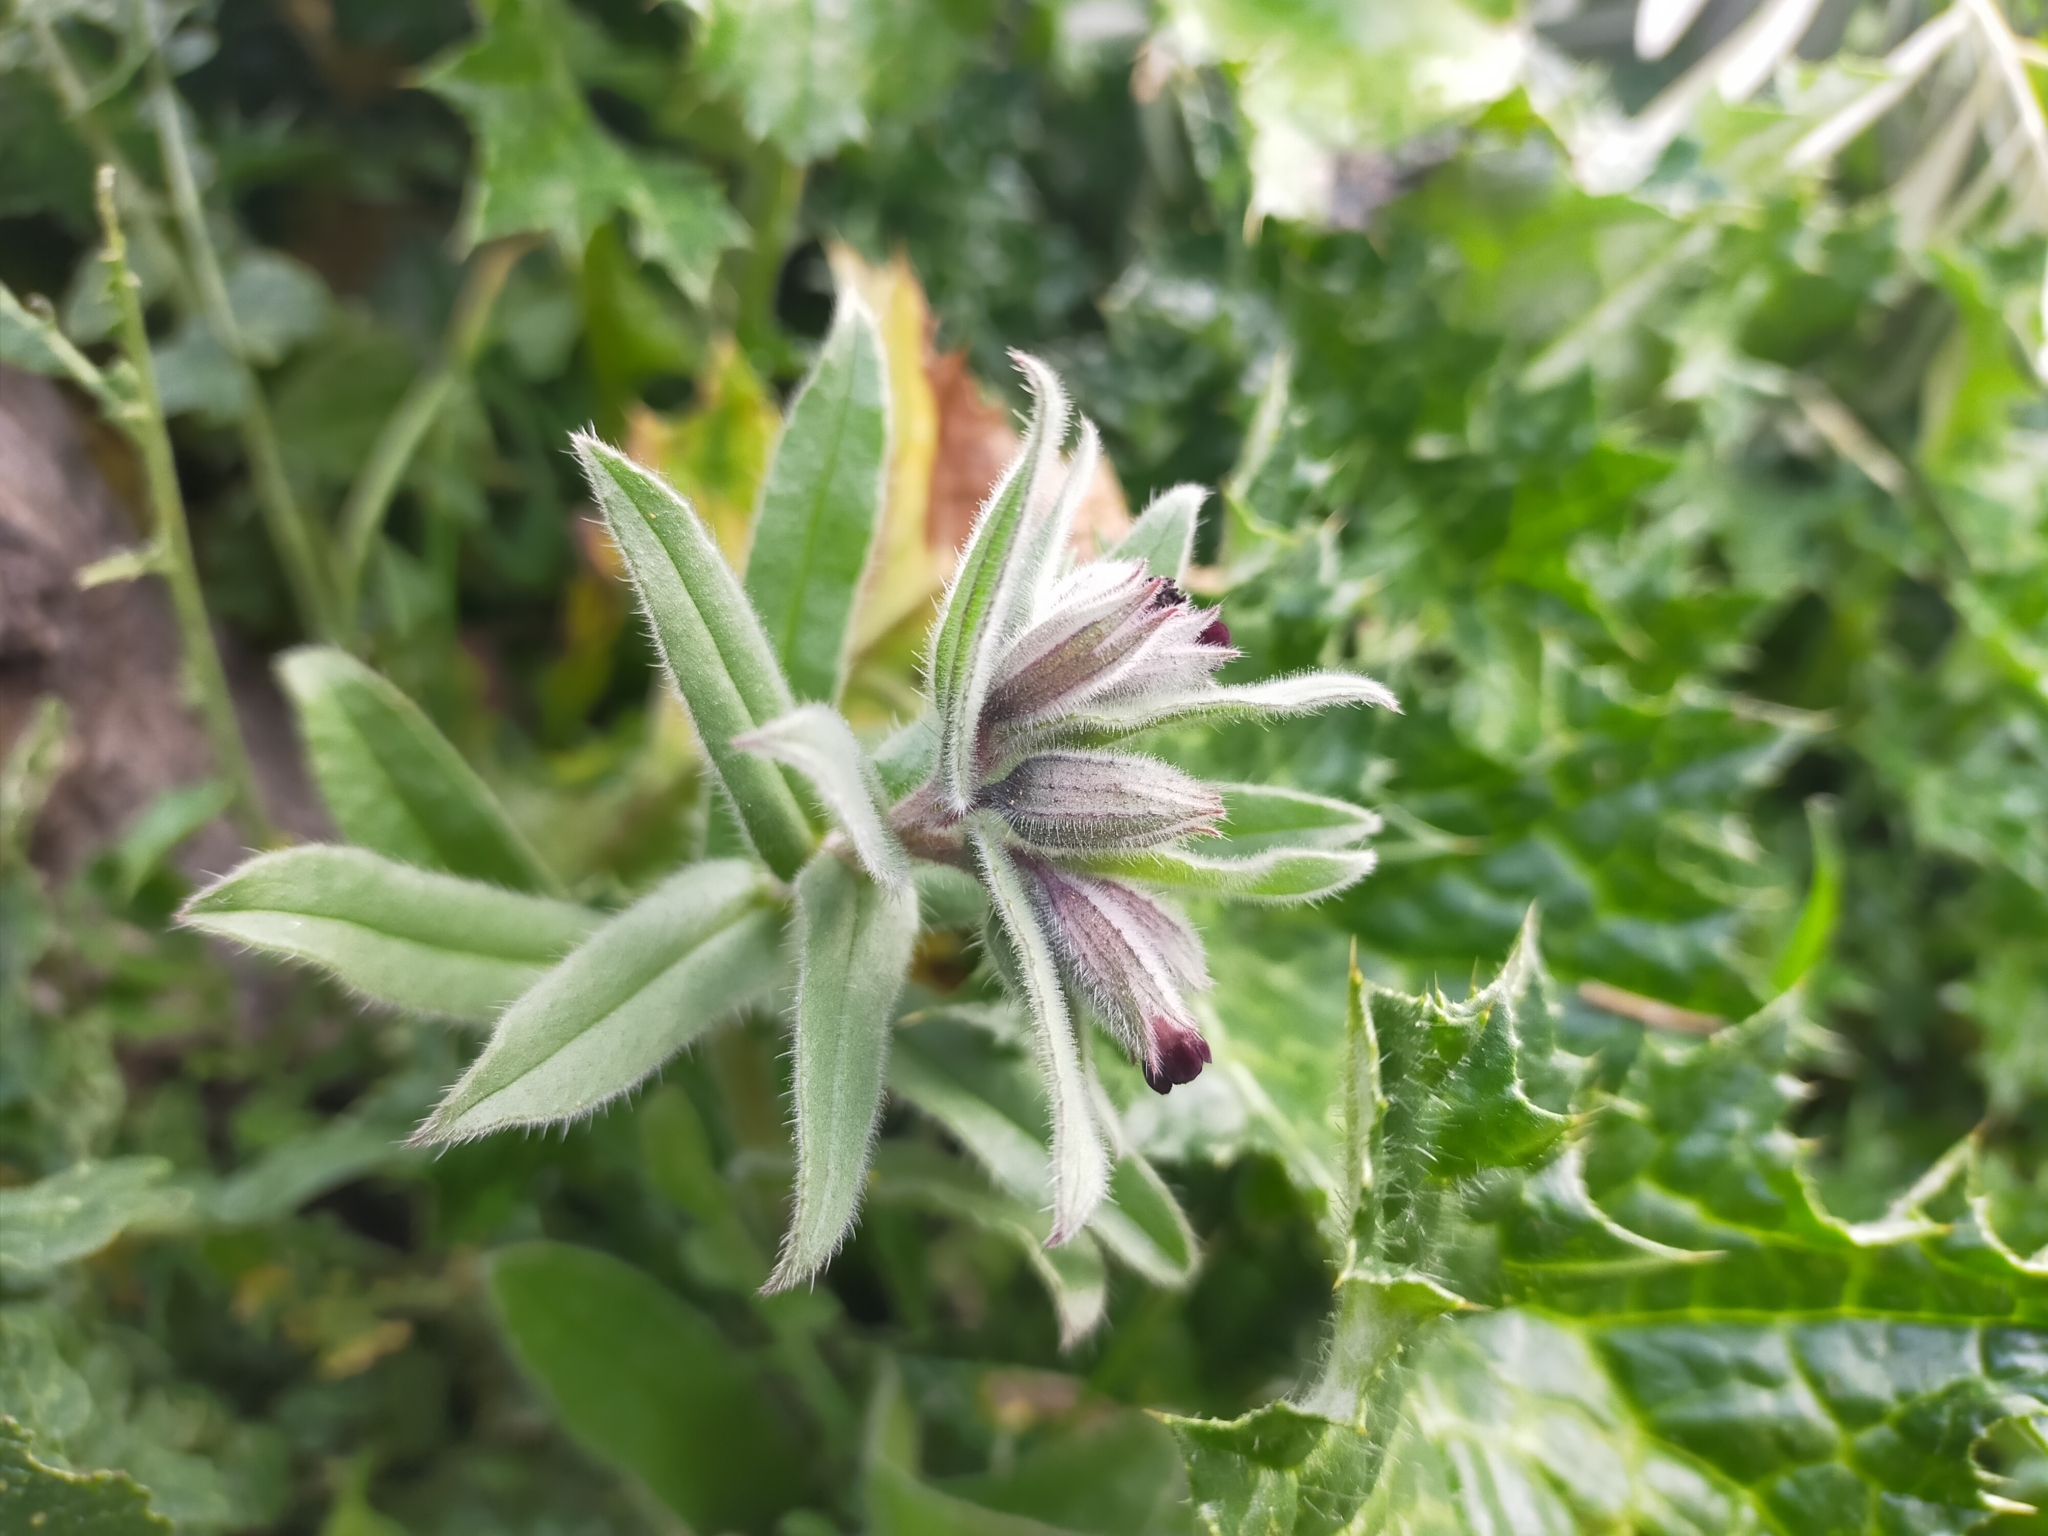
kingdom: Plantae
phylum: Tracheophyta
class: Magnoliopsida
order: Boraginales
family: Boraginaceae
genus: Nonea
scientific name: Nonea vesicaria
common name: Red monkswort
